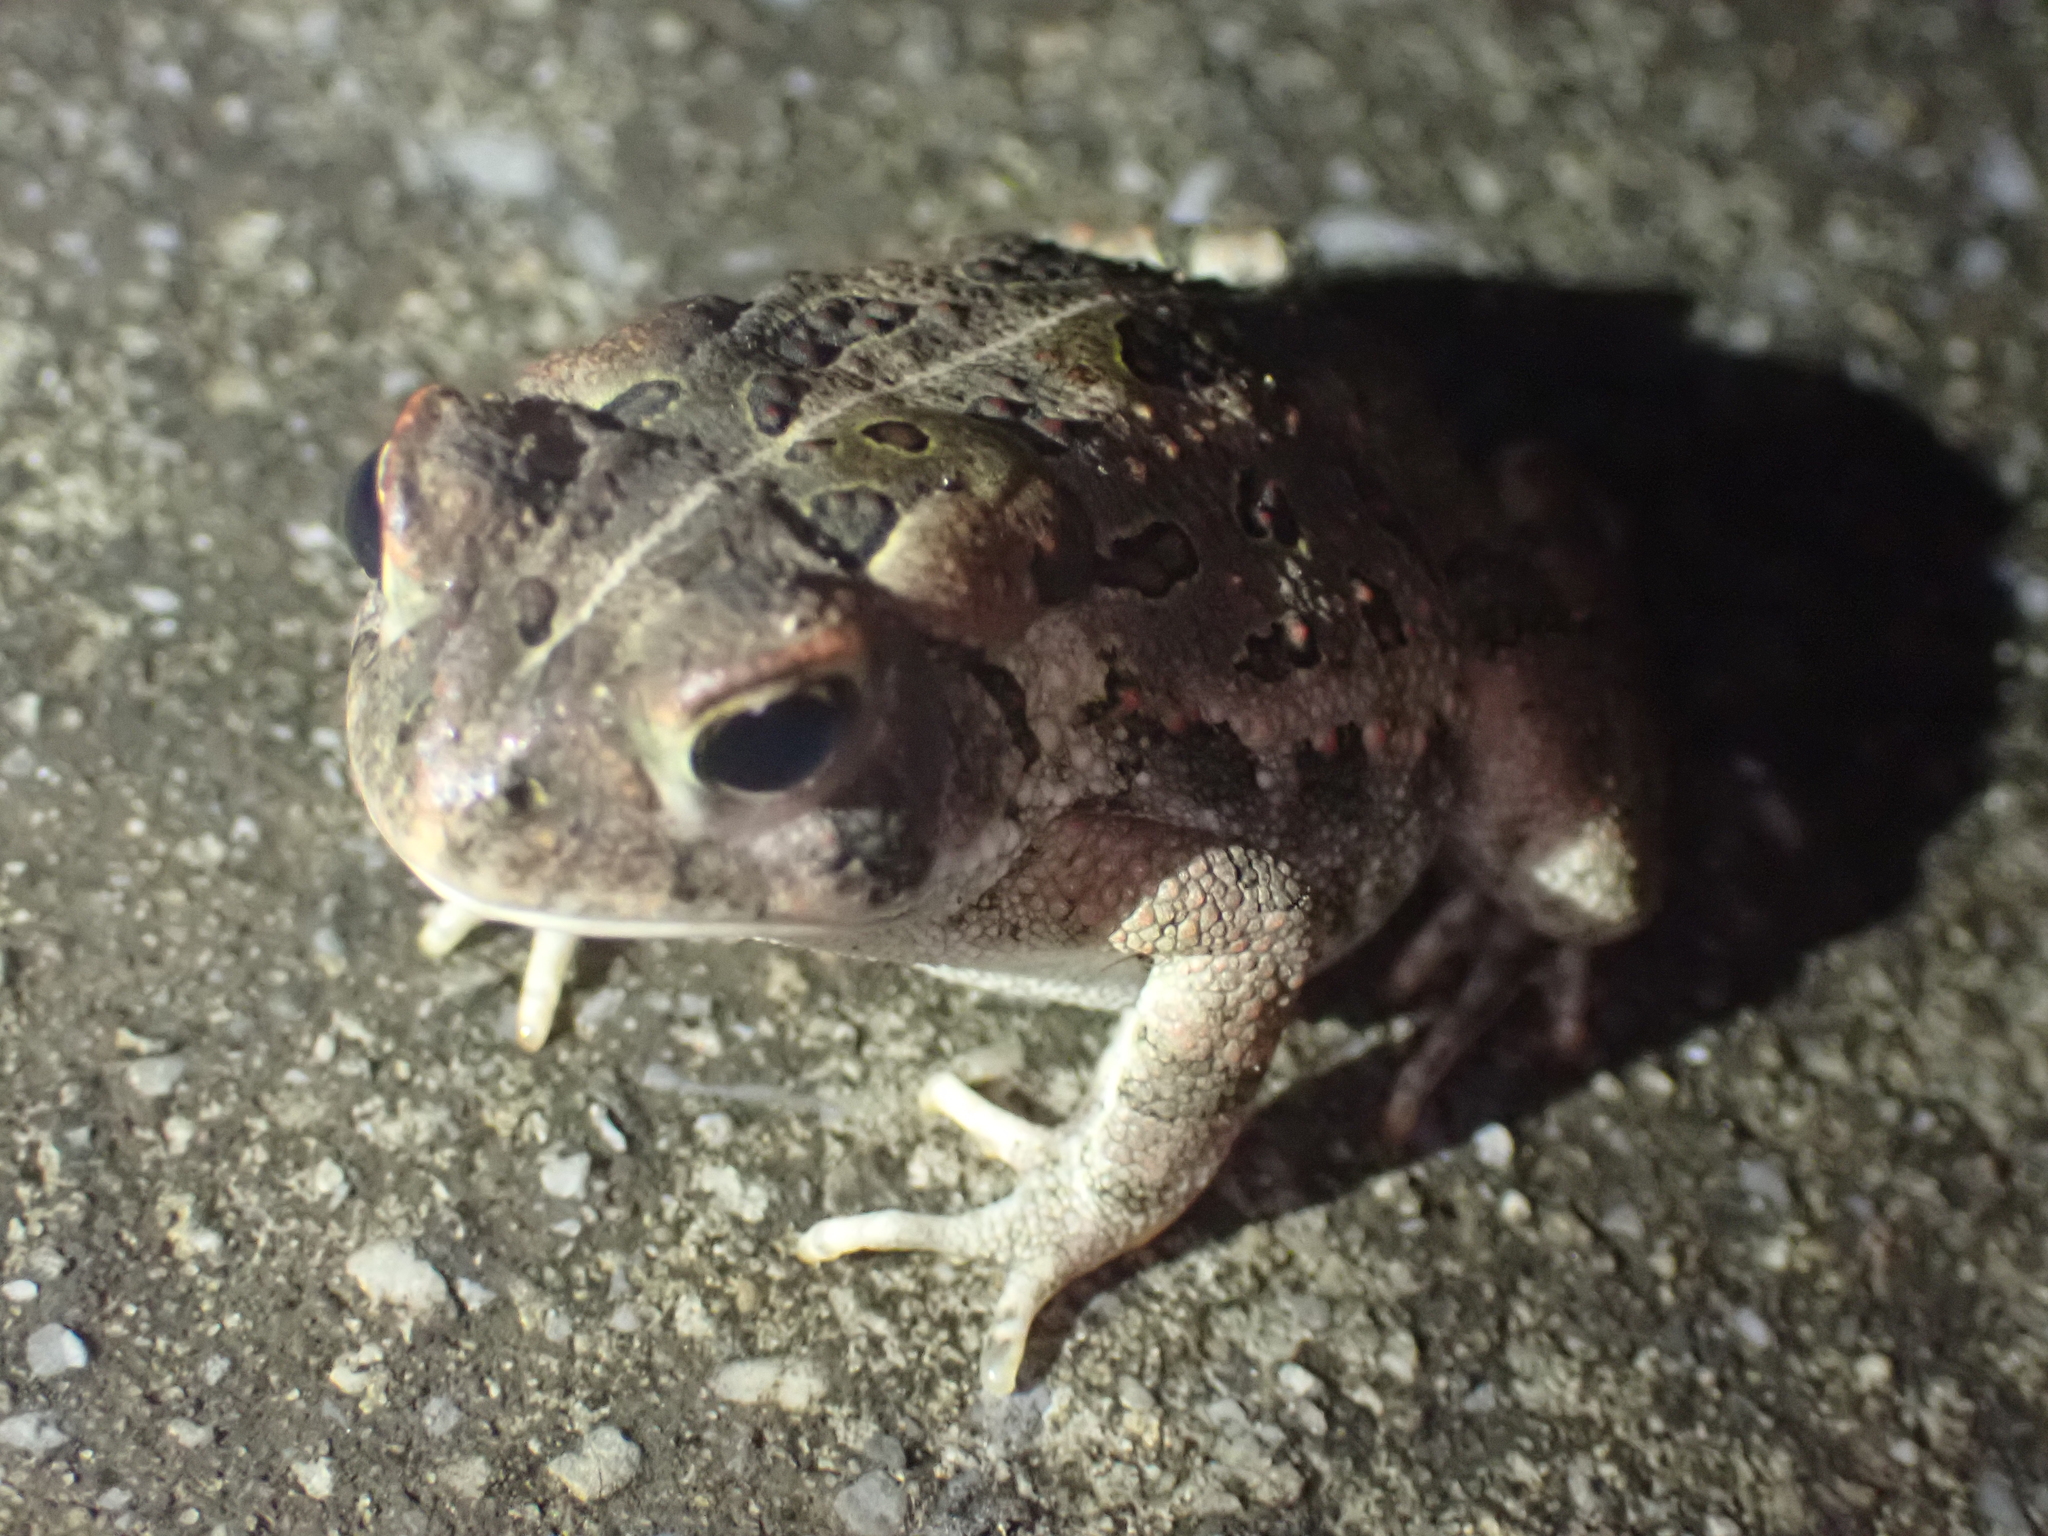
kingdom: Animalia
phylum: Chordata
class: Amphibia
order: Anura
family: Bufonidae
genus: Anaxyrus
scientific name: Anaxyrus fowleri
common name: Fowler's toad
